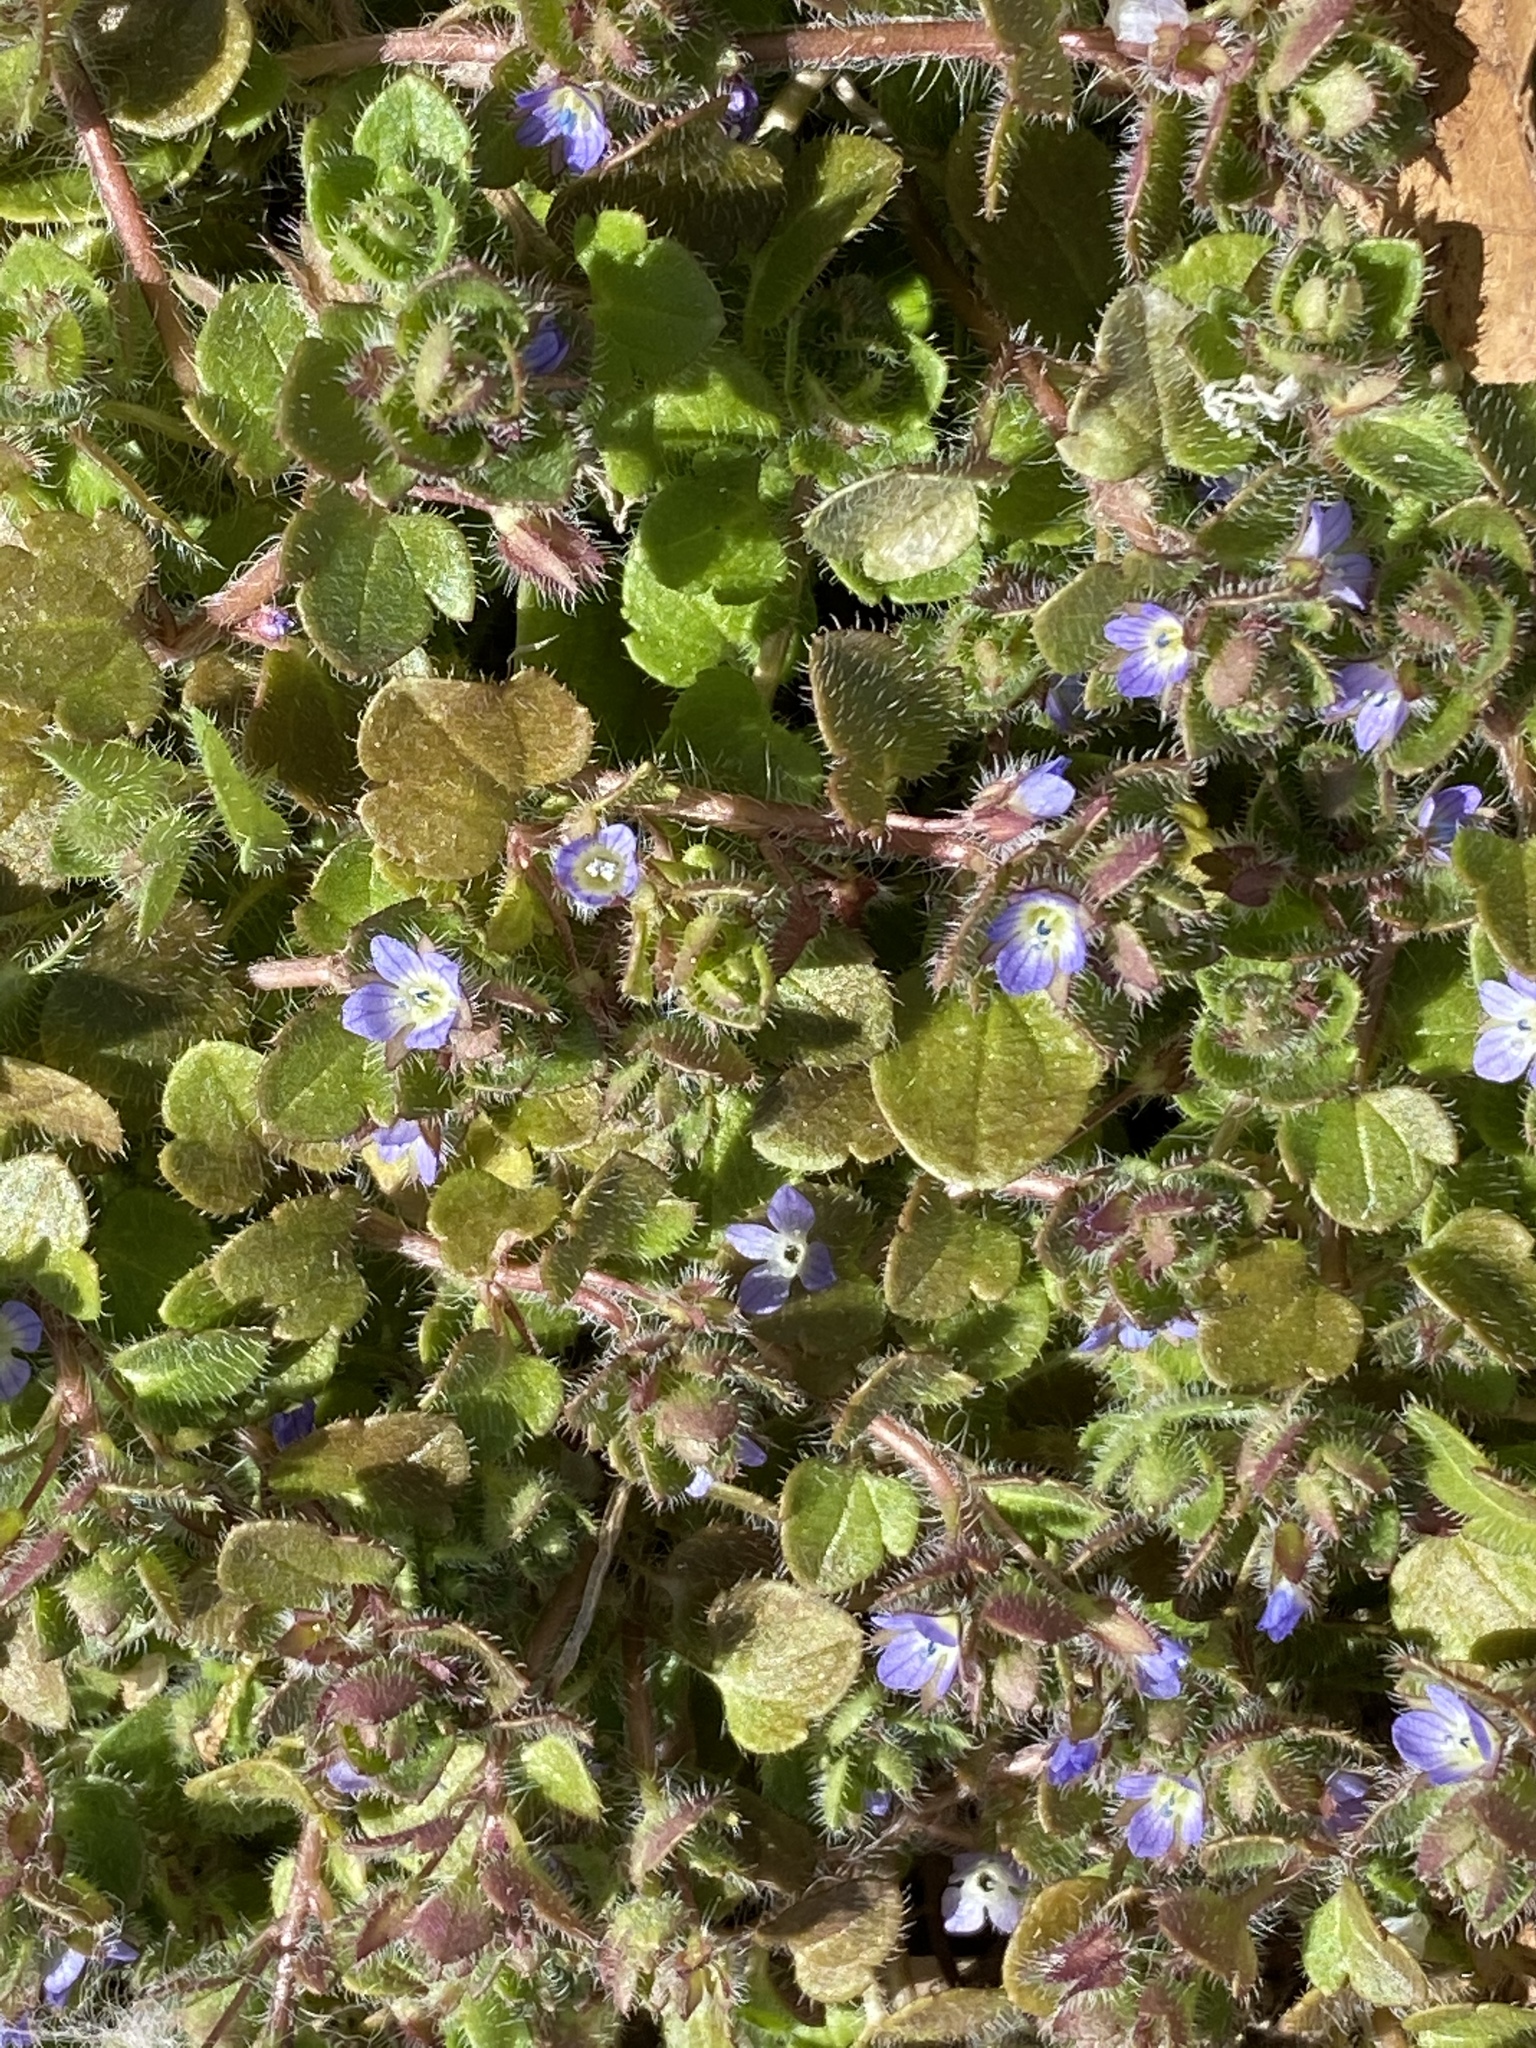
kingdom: Plantae
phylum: Tracheophyta
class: Magnoliopsida
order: Lamiales
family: Plantaginaceae
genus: Veronica
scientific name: Veronica hederifolia
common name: Ivy-leaved speedwell
